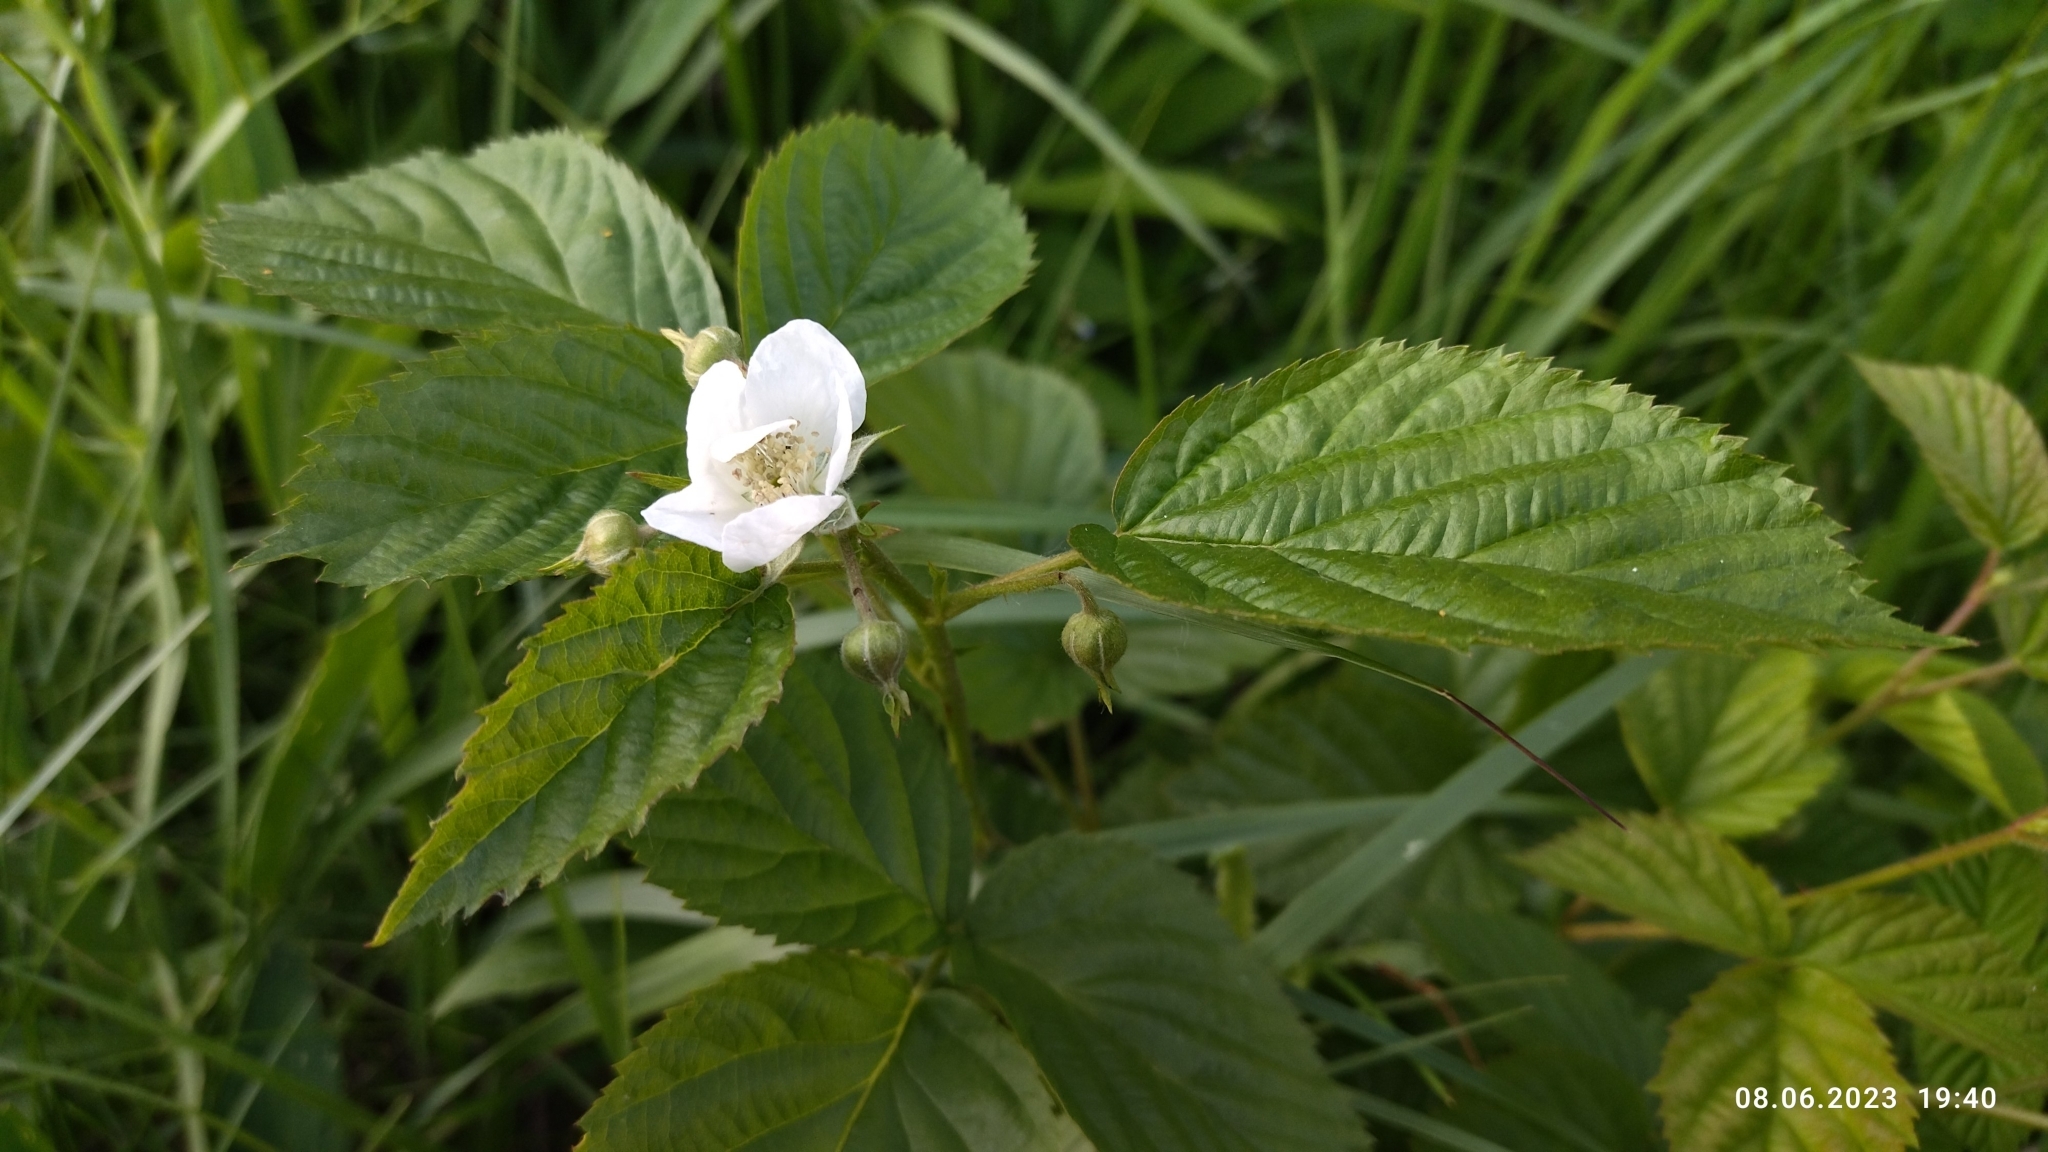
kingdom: Plantae
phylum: Tracheophyta
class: Magnoliopsida
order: Rosales
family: Rosaceae
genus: Rubus
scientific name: Rubus polonicus
